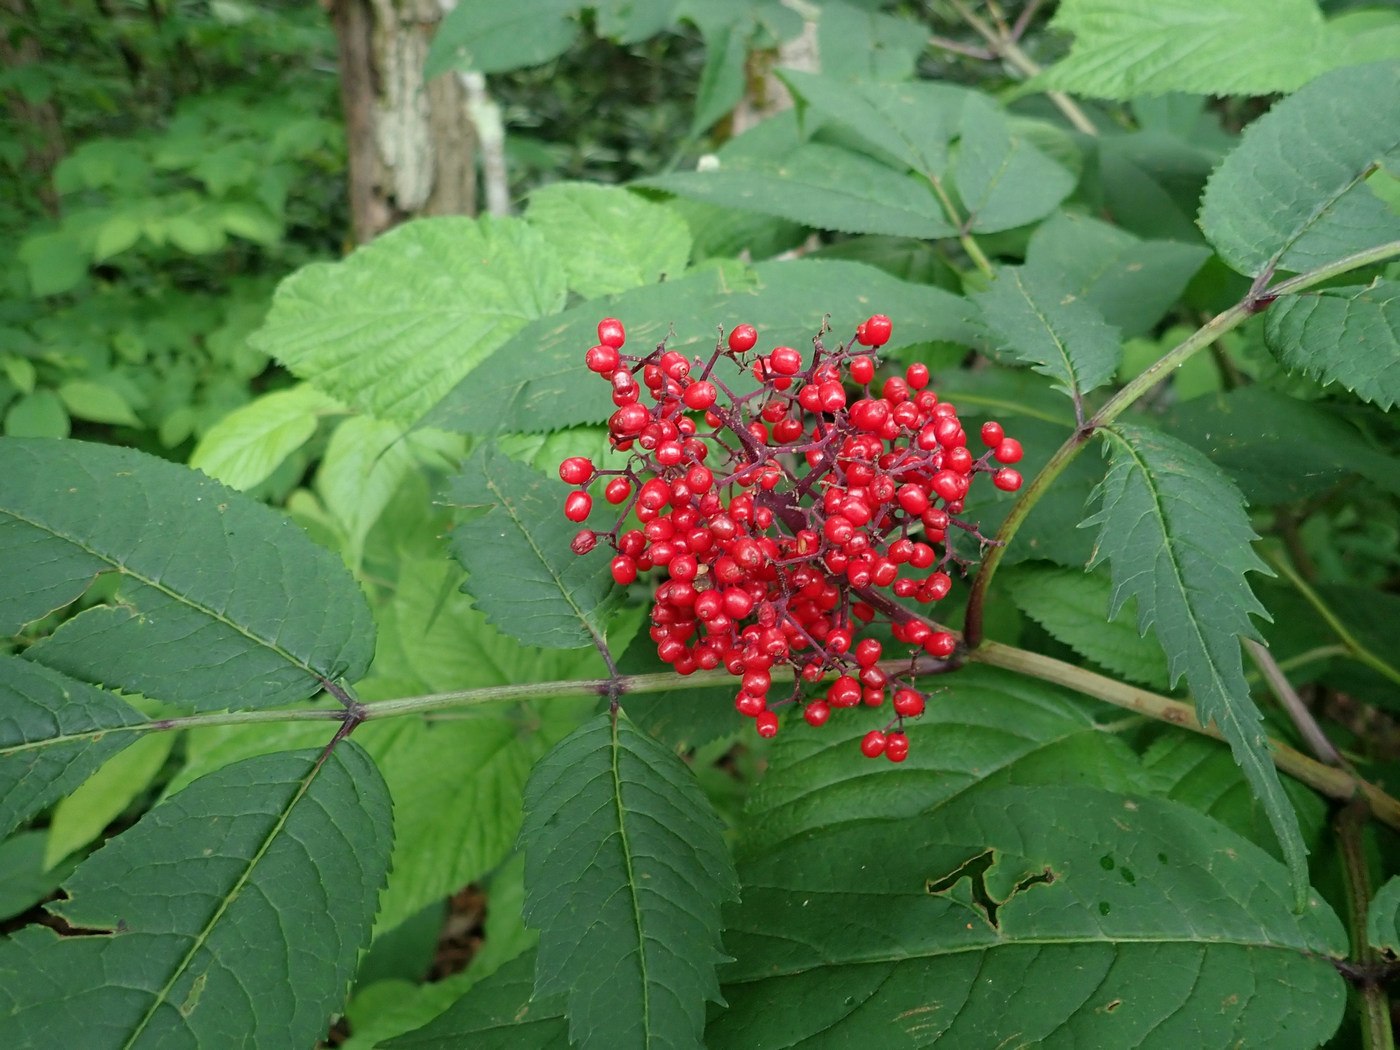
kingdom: Plantae
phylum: Tracheophyta
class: Magnoliopsida
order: Dipsacales
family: Viburnaceae
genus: Sambucus
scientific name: Sambucus racemosa
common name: Red-berried elder
